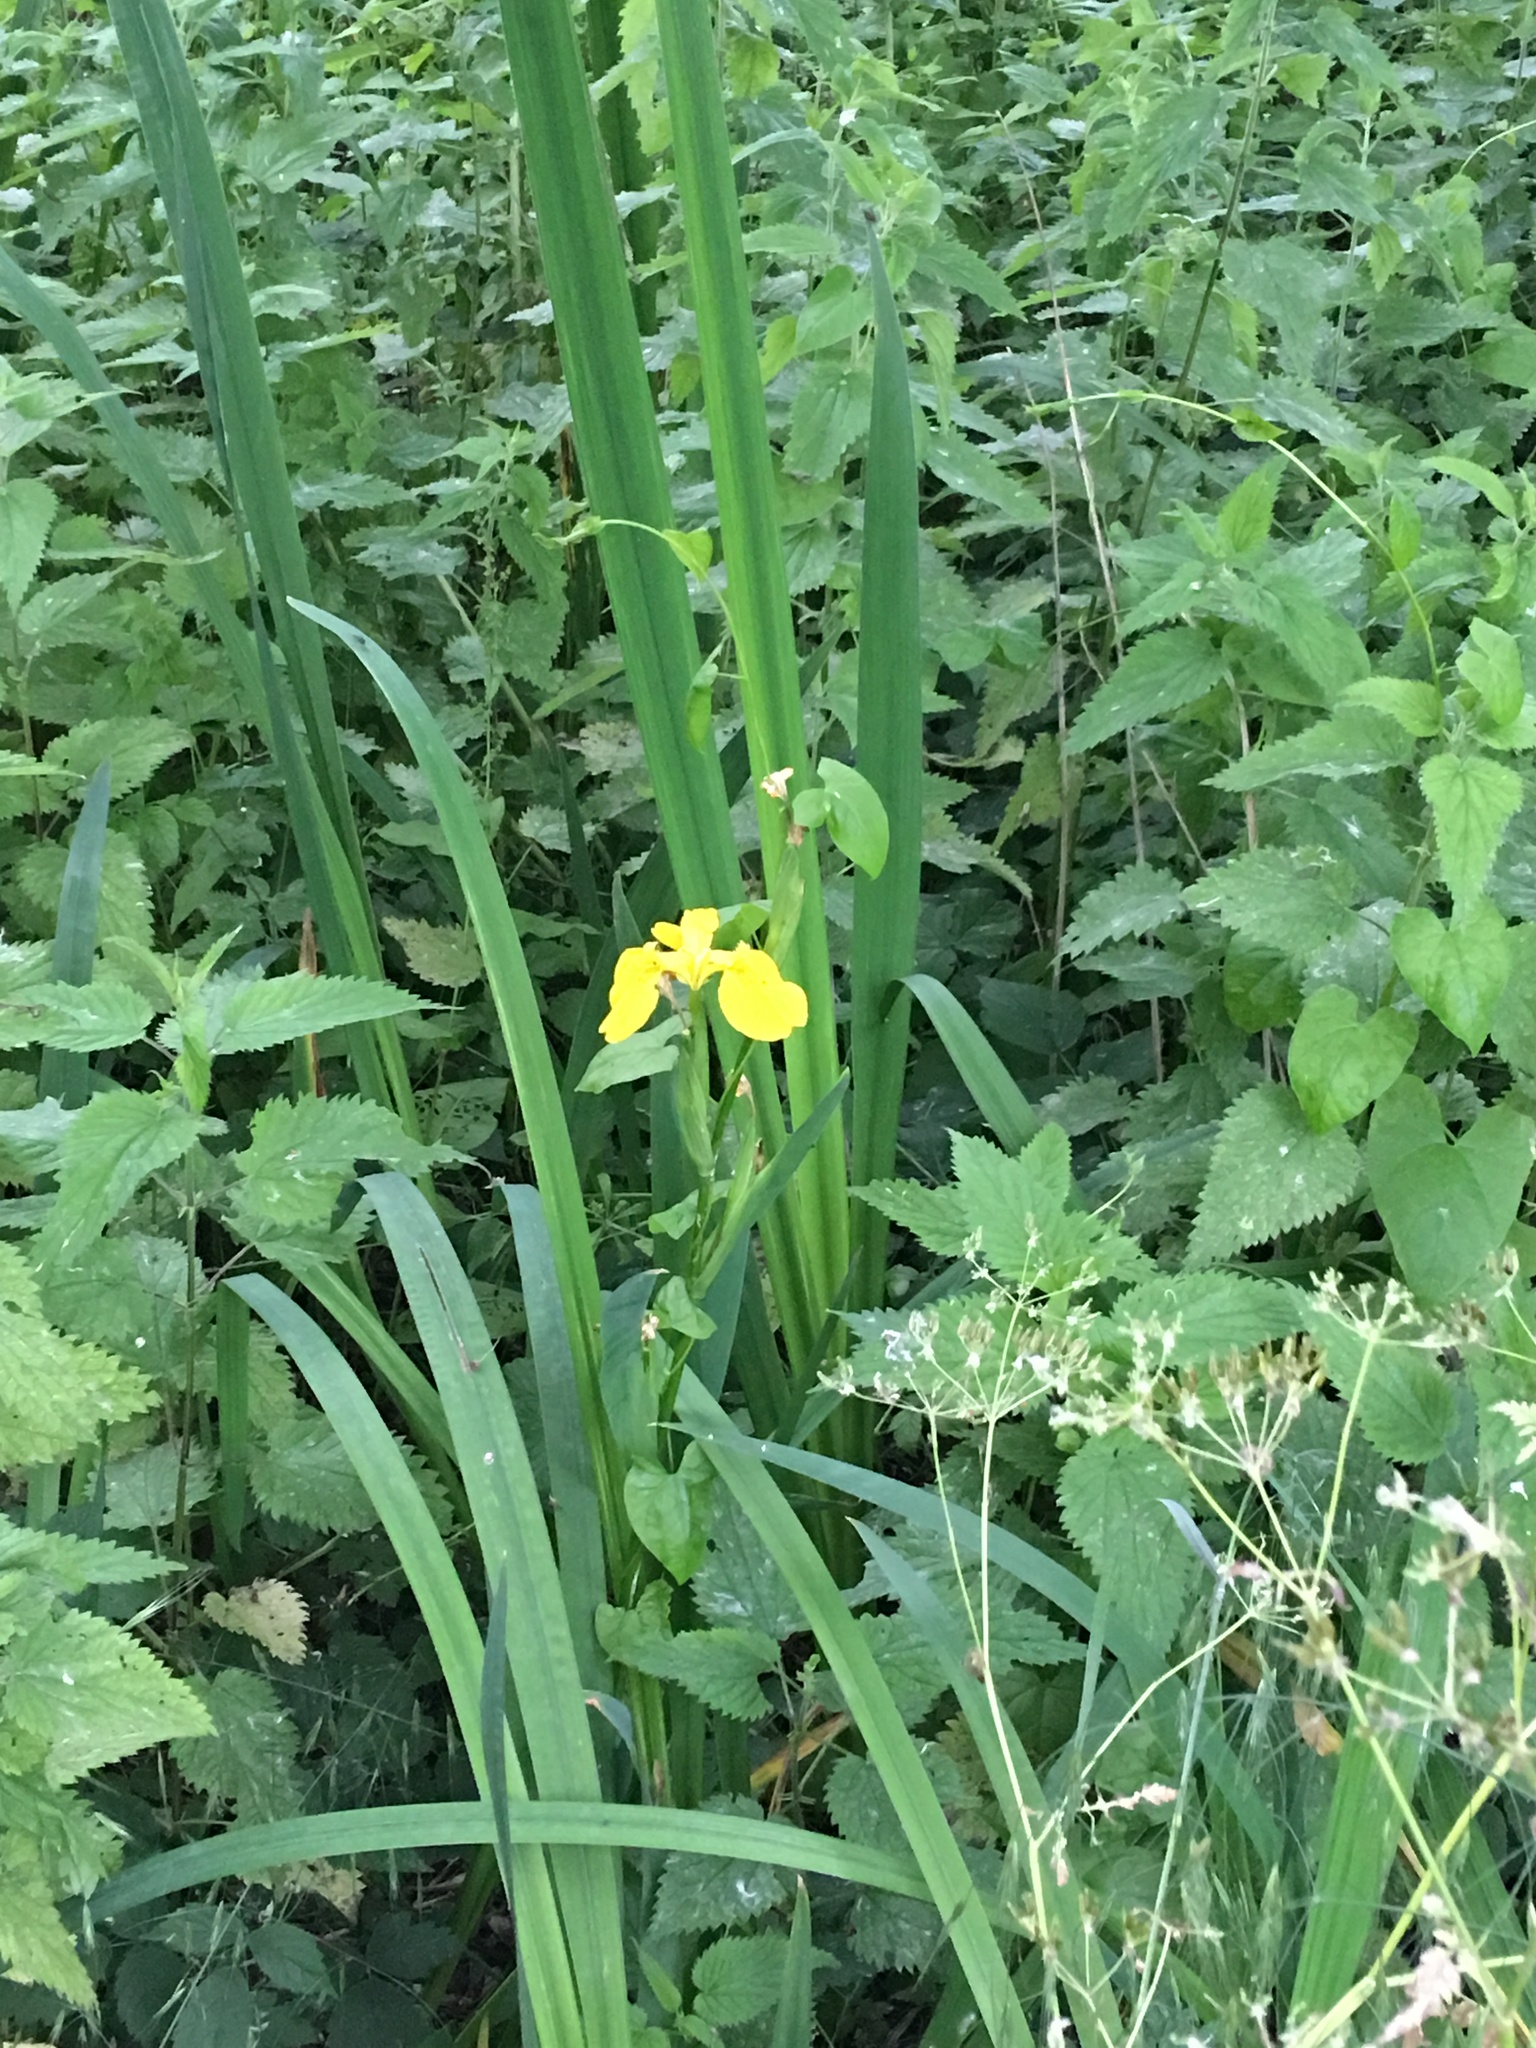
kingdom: Plantae
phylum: Tracheophyta
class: Liliopsida
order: Asparagales
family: Iridaceae
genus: Iris
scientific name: Iris pseudacorus
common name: Yellow flag
